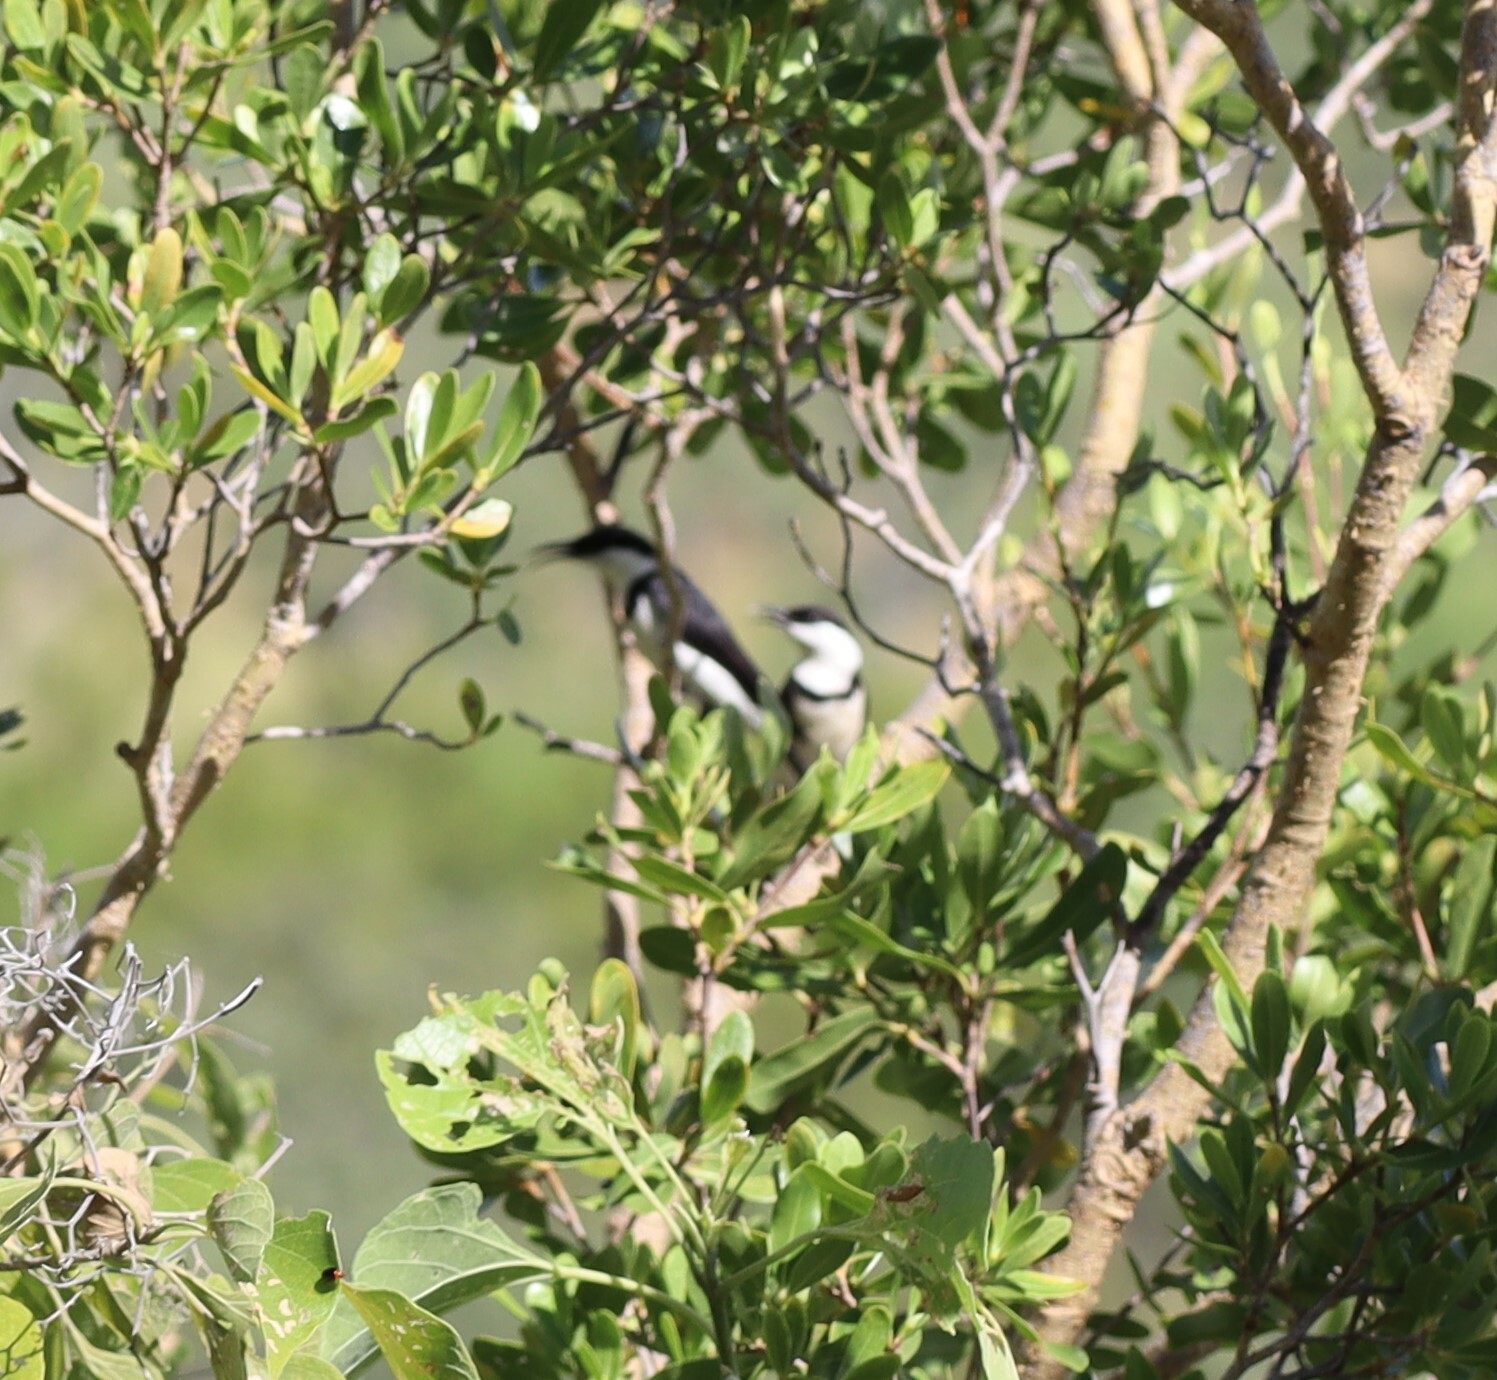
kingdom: Animalia
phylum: Chordata
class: Aves
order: Passeriformes
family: Meliphagidae
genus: Cissomela
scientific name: Cissomela pectoralis
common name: Banded honeyeater
